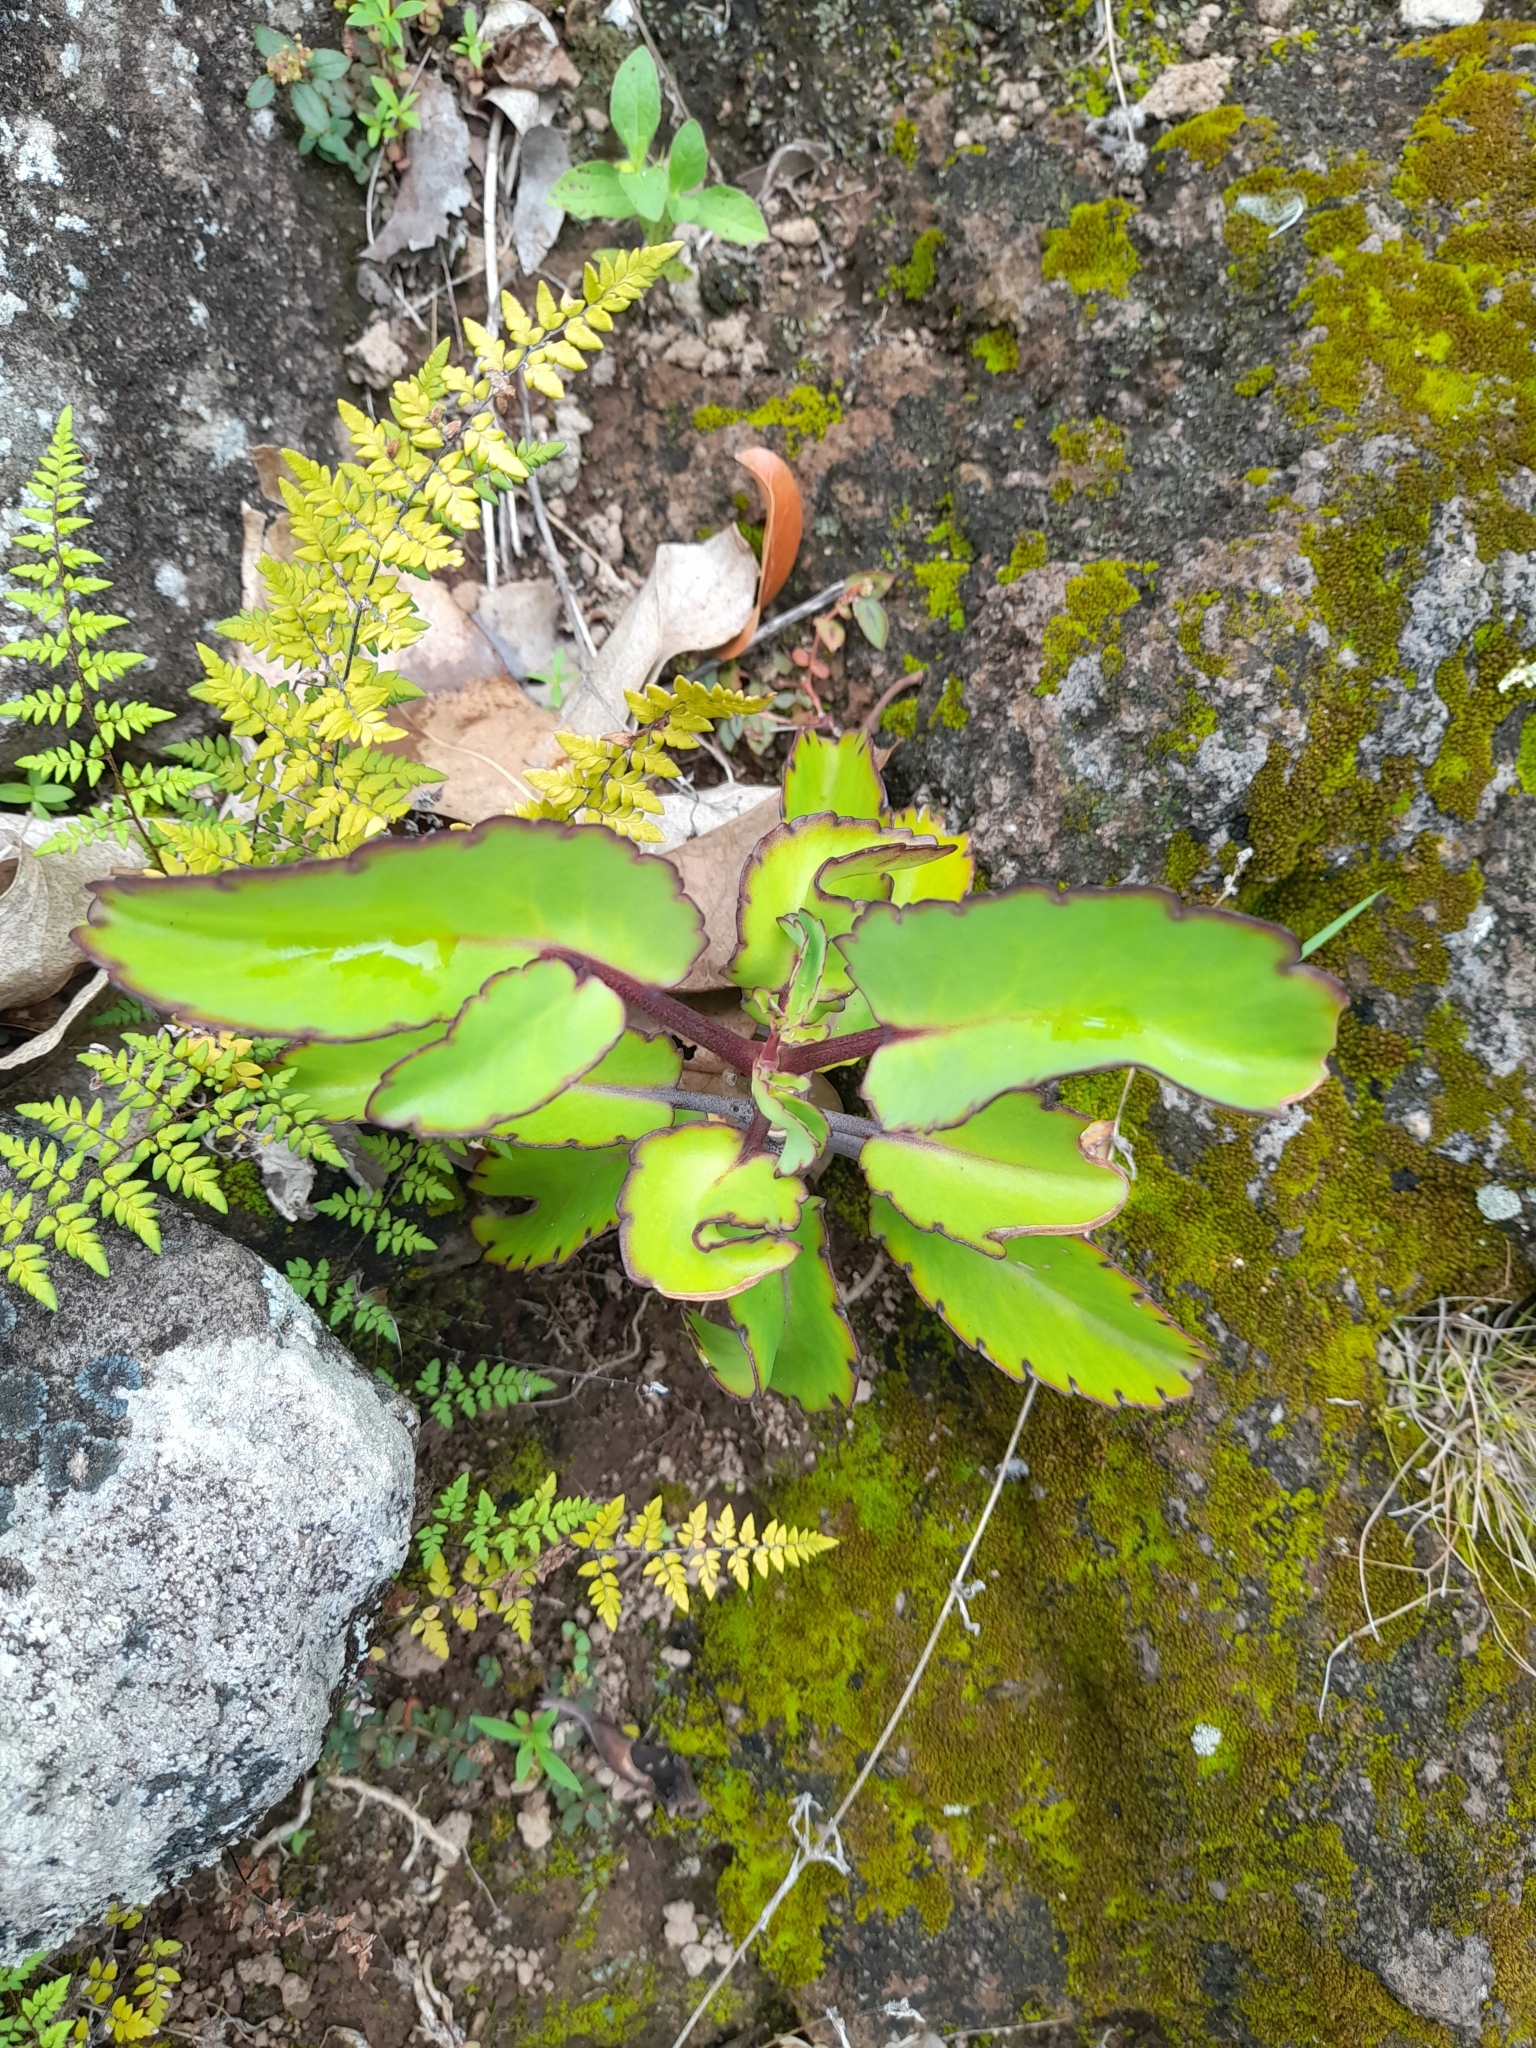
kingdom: Plantae
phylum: Tracheophyta
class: Magnoliopsida
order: Saxifragales
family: Crassulaceae
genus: Kalanchoe
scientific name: Kalanchoe pinnata
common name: Cathedral bells
